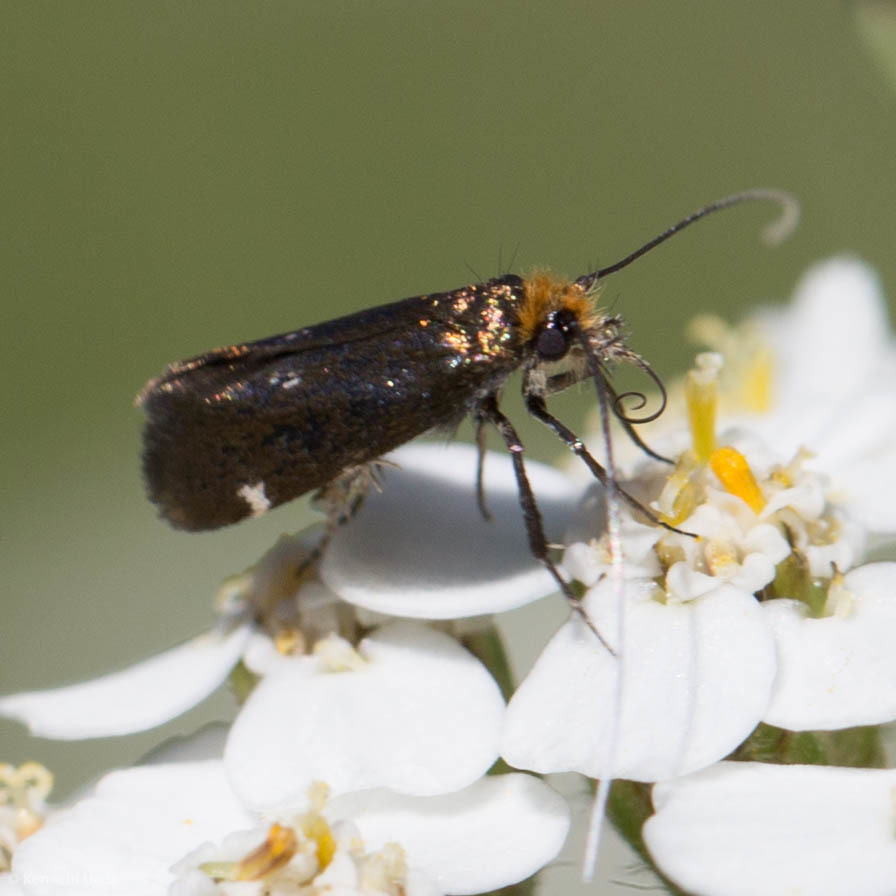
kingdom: Animalia
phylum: Arthropoda
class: Insecta
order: Lepidoptera
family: Adelidae
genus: Adela
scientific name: Adela flammeusella
